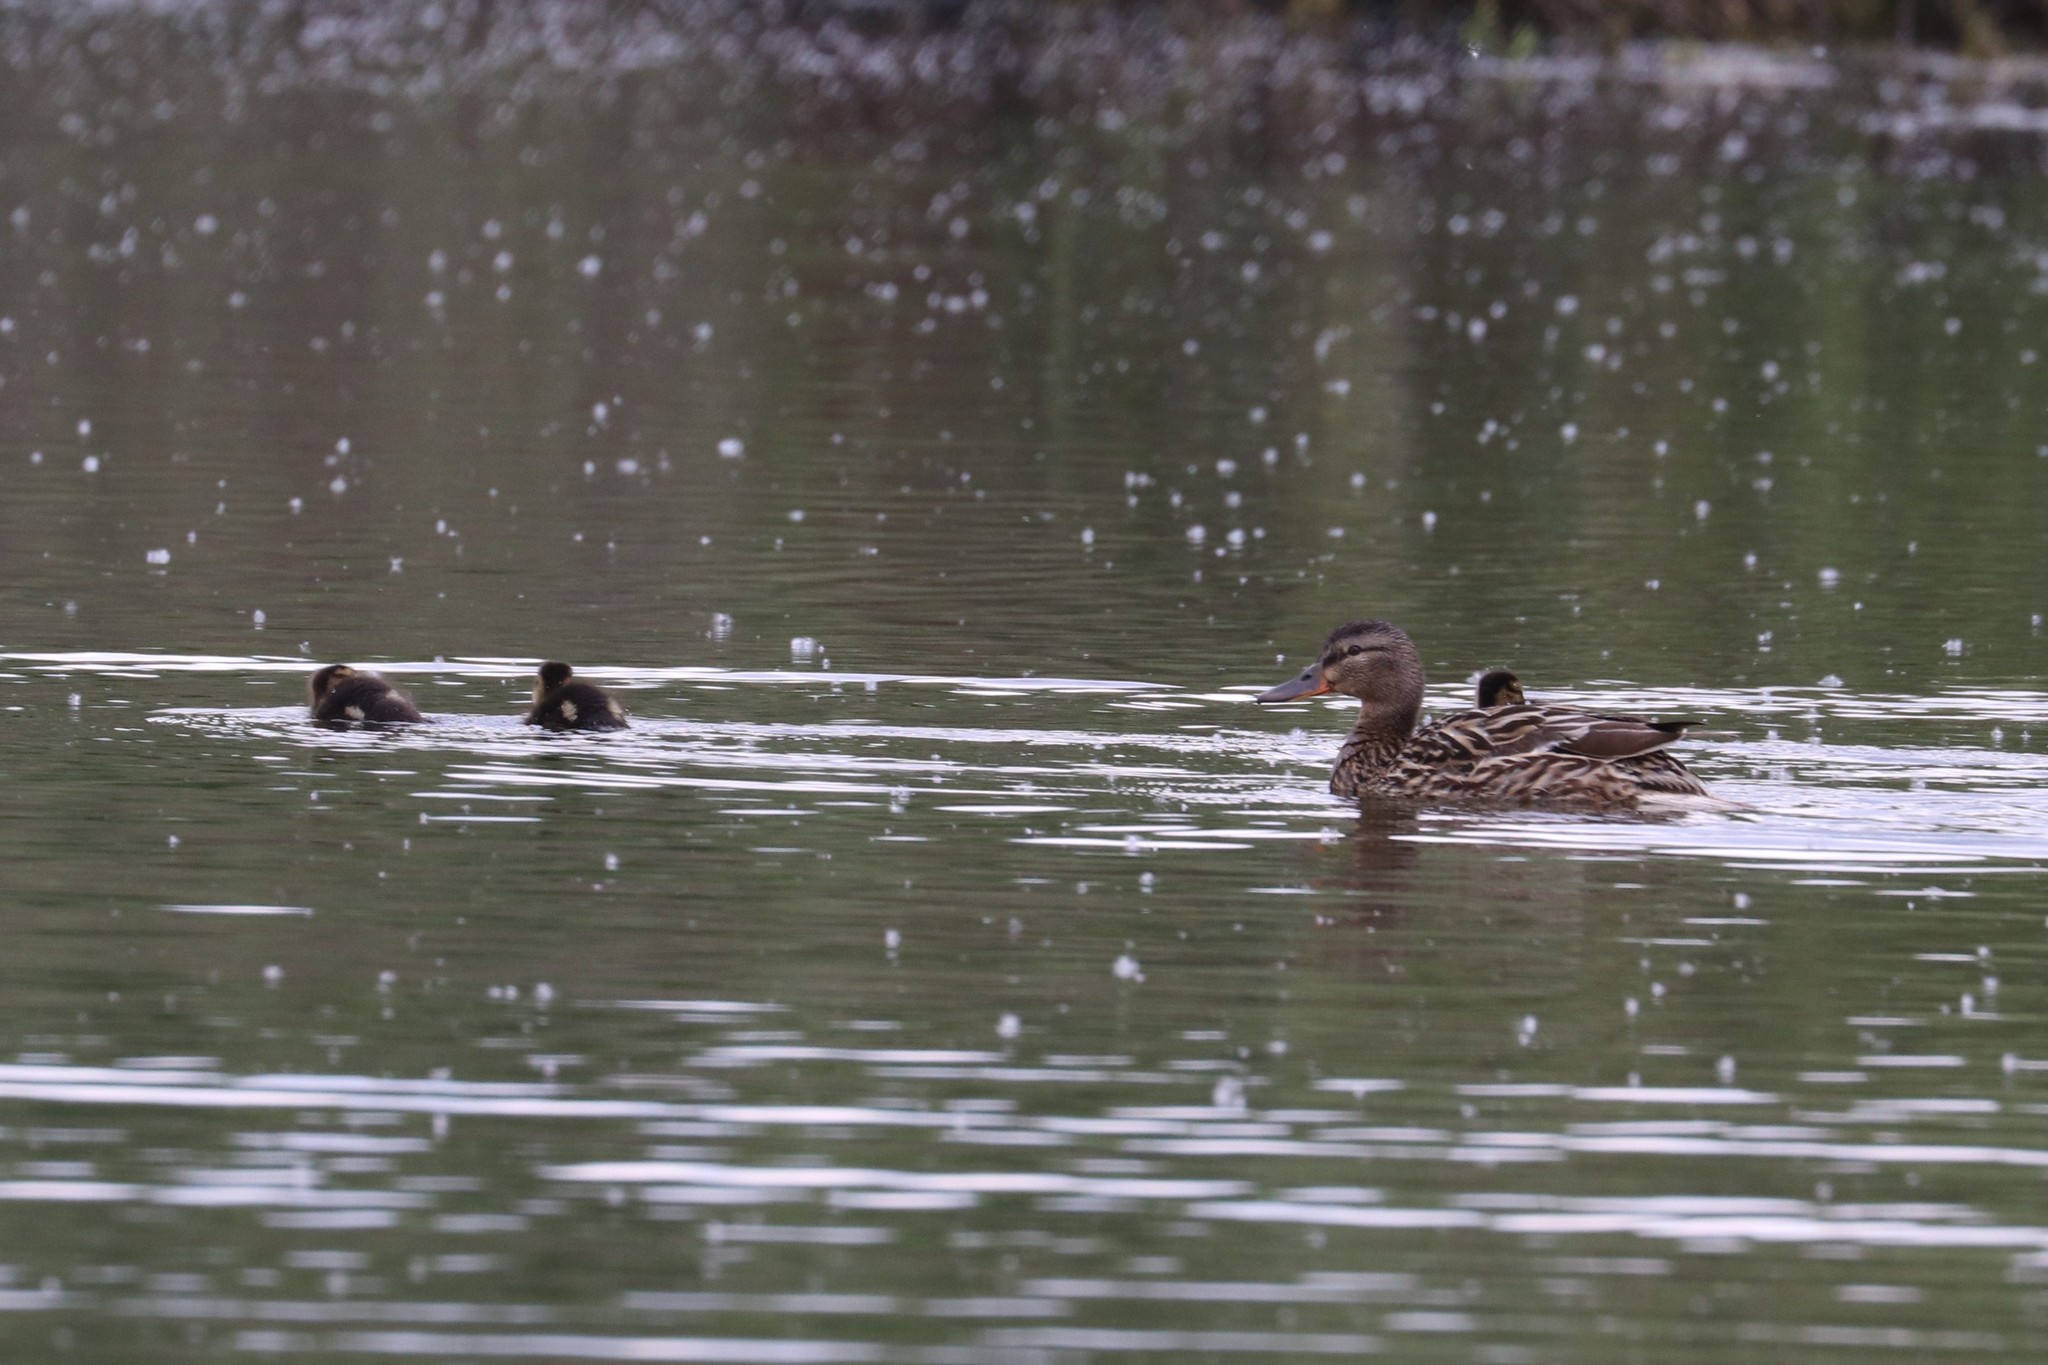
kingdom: Animalia
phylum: Chordata
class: Aves
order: Anseriformes
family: Anatidae
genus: Anas
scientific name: Anas platyrhynchos
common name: Mallard
